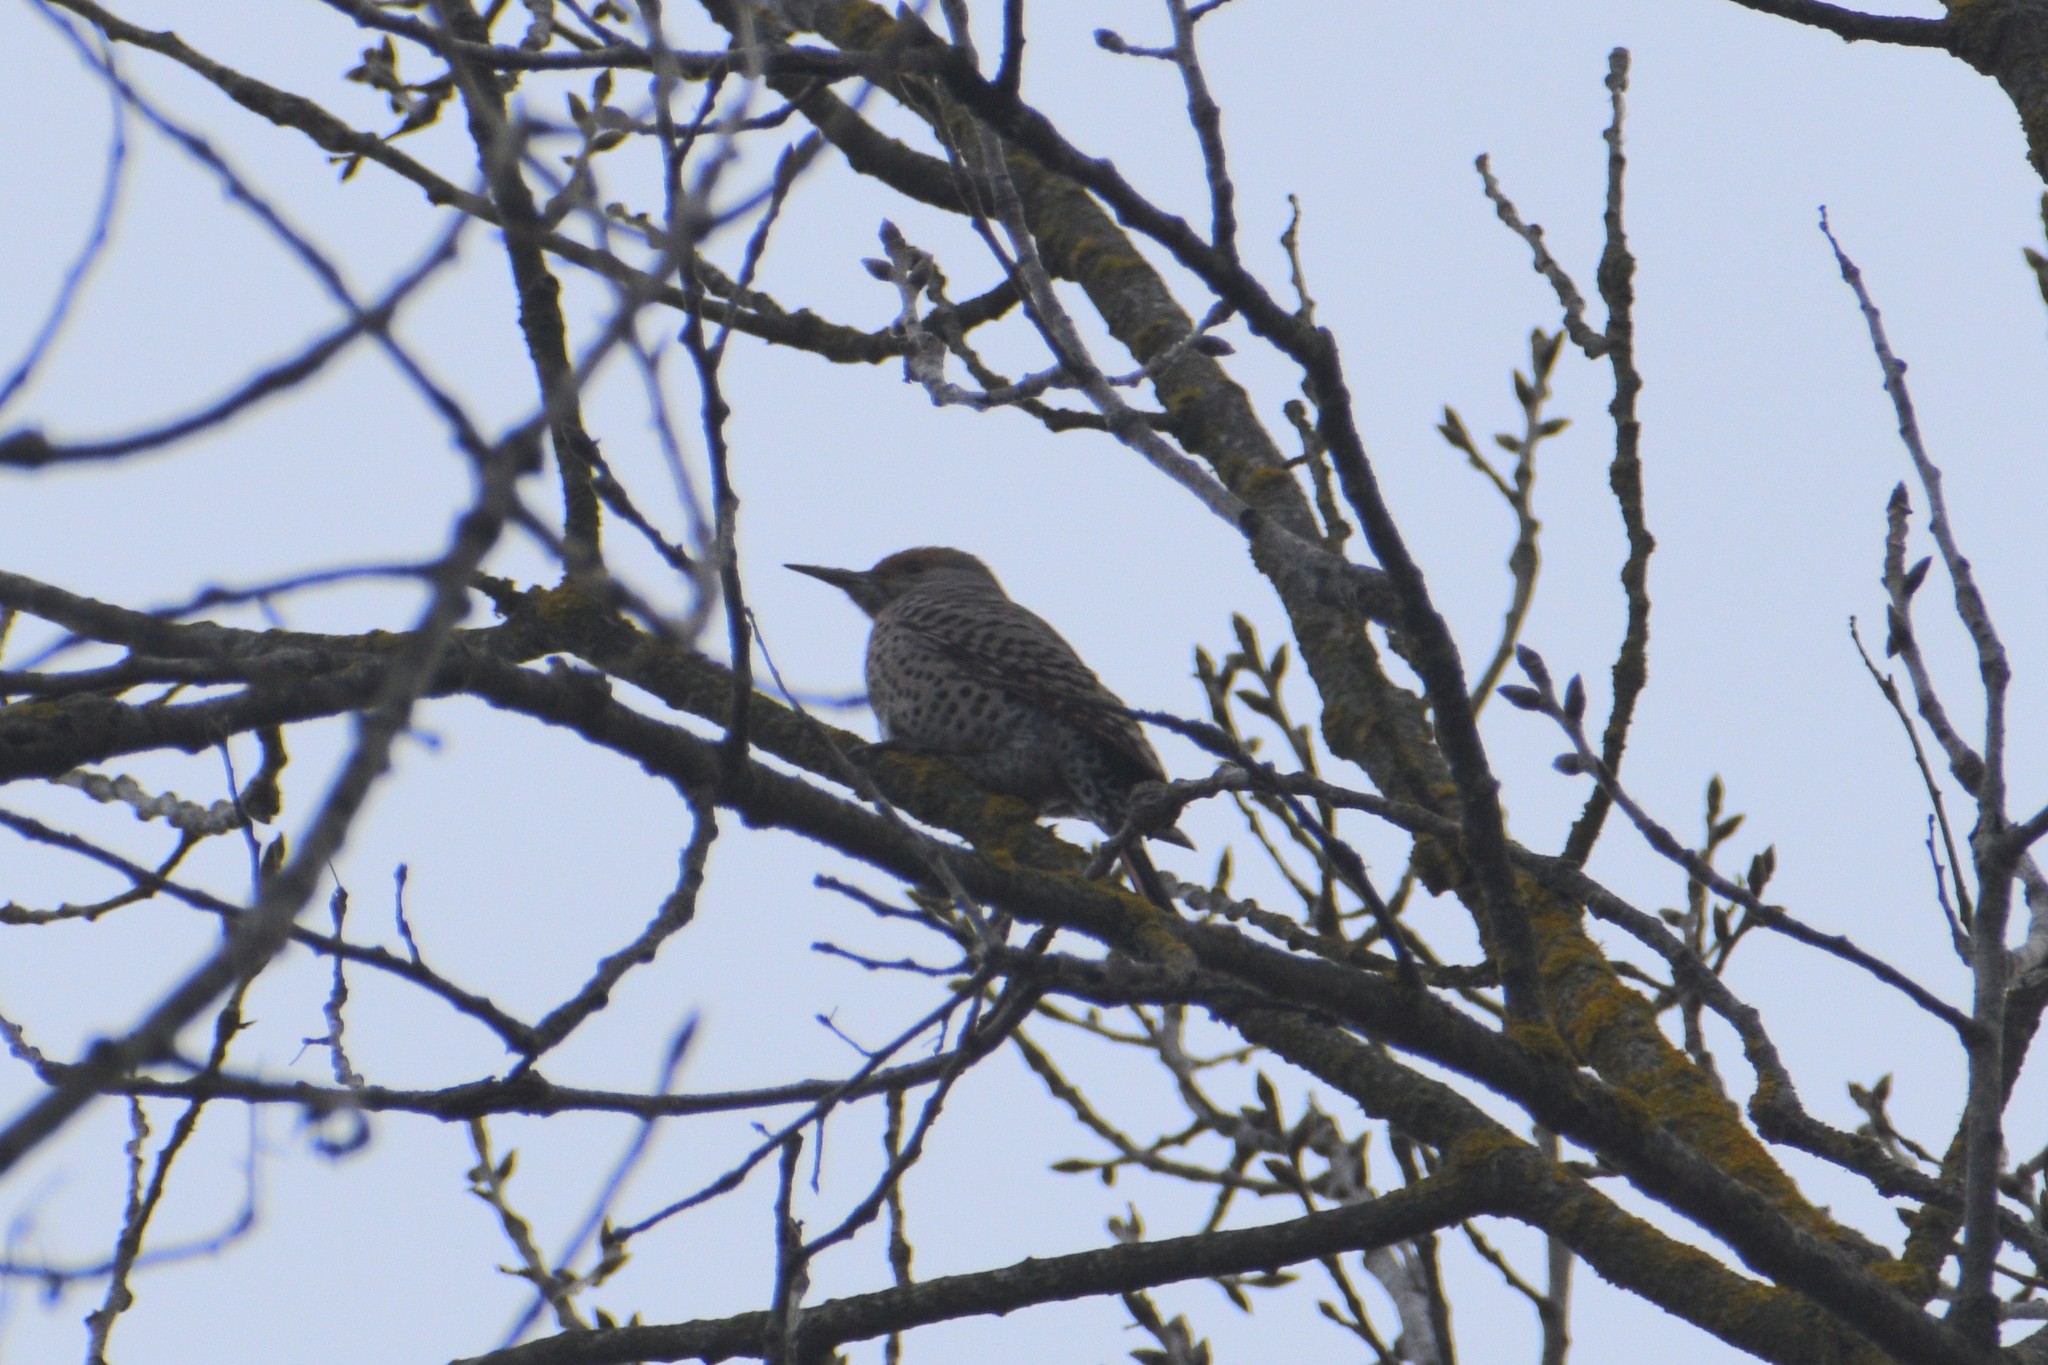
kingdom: Animalia
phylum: Chordata
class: Aves
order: Piciformes
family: Picidae
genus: Colaptes
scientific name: Colaptes auratus
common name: Northern flicker
